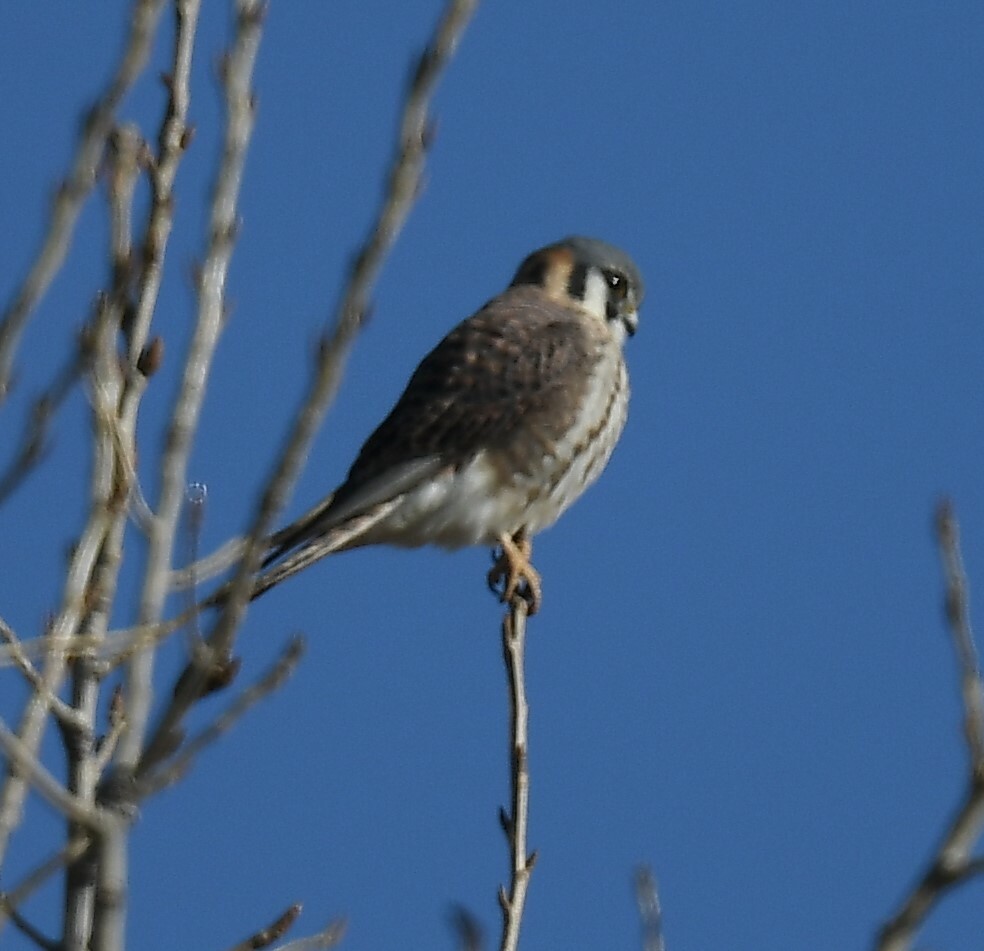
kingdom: Animalia
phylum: Chordata
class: Aves
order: Falconiformes
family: Falconidae
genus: Falco
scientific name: Falco sparverius
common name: American kestrel
